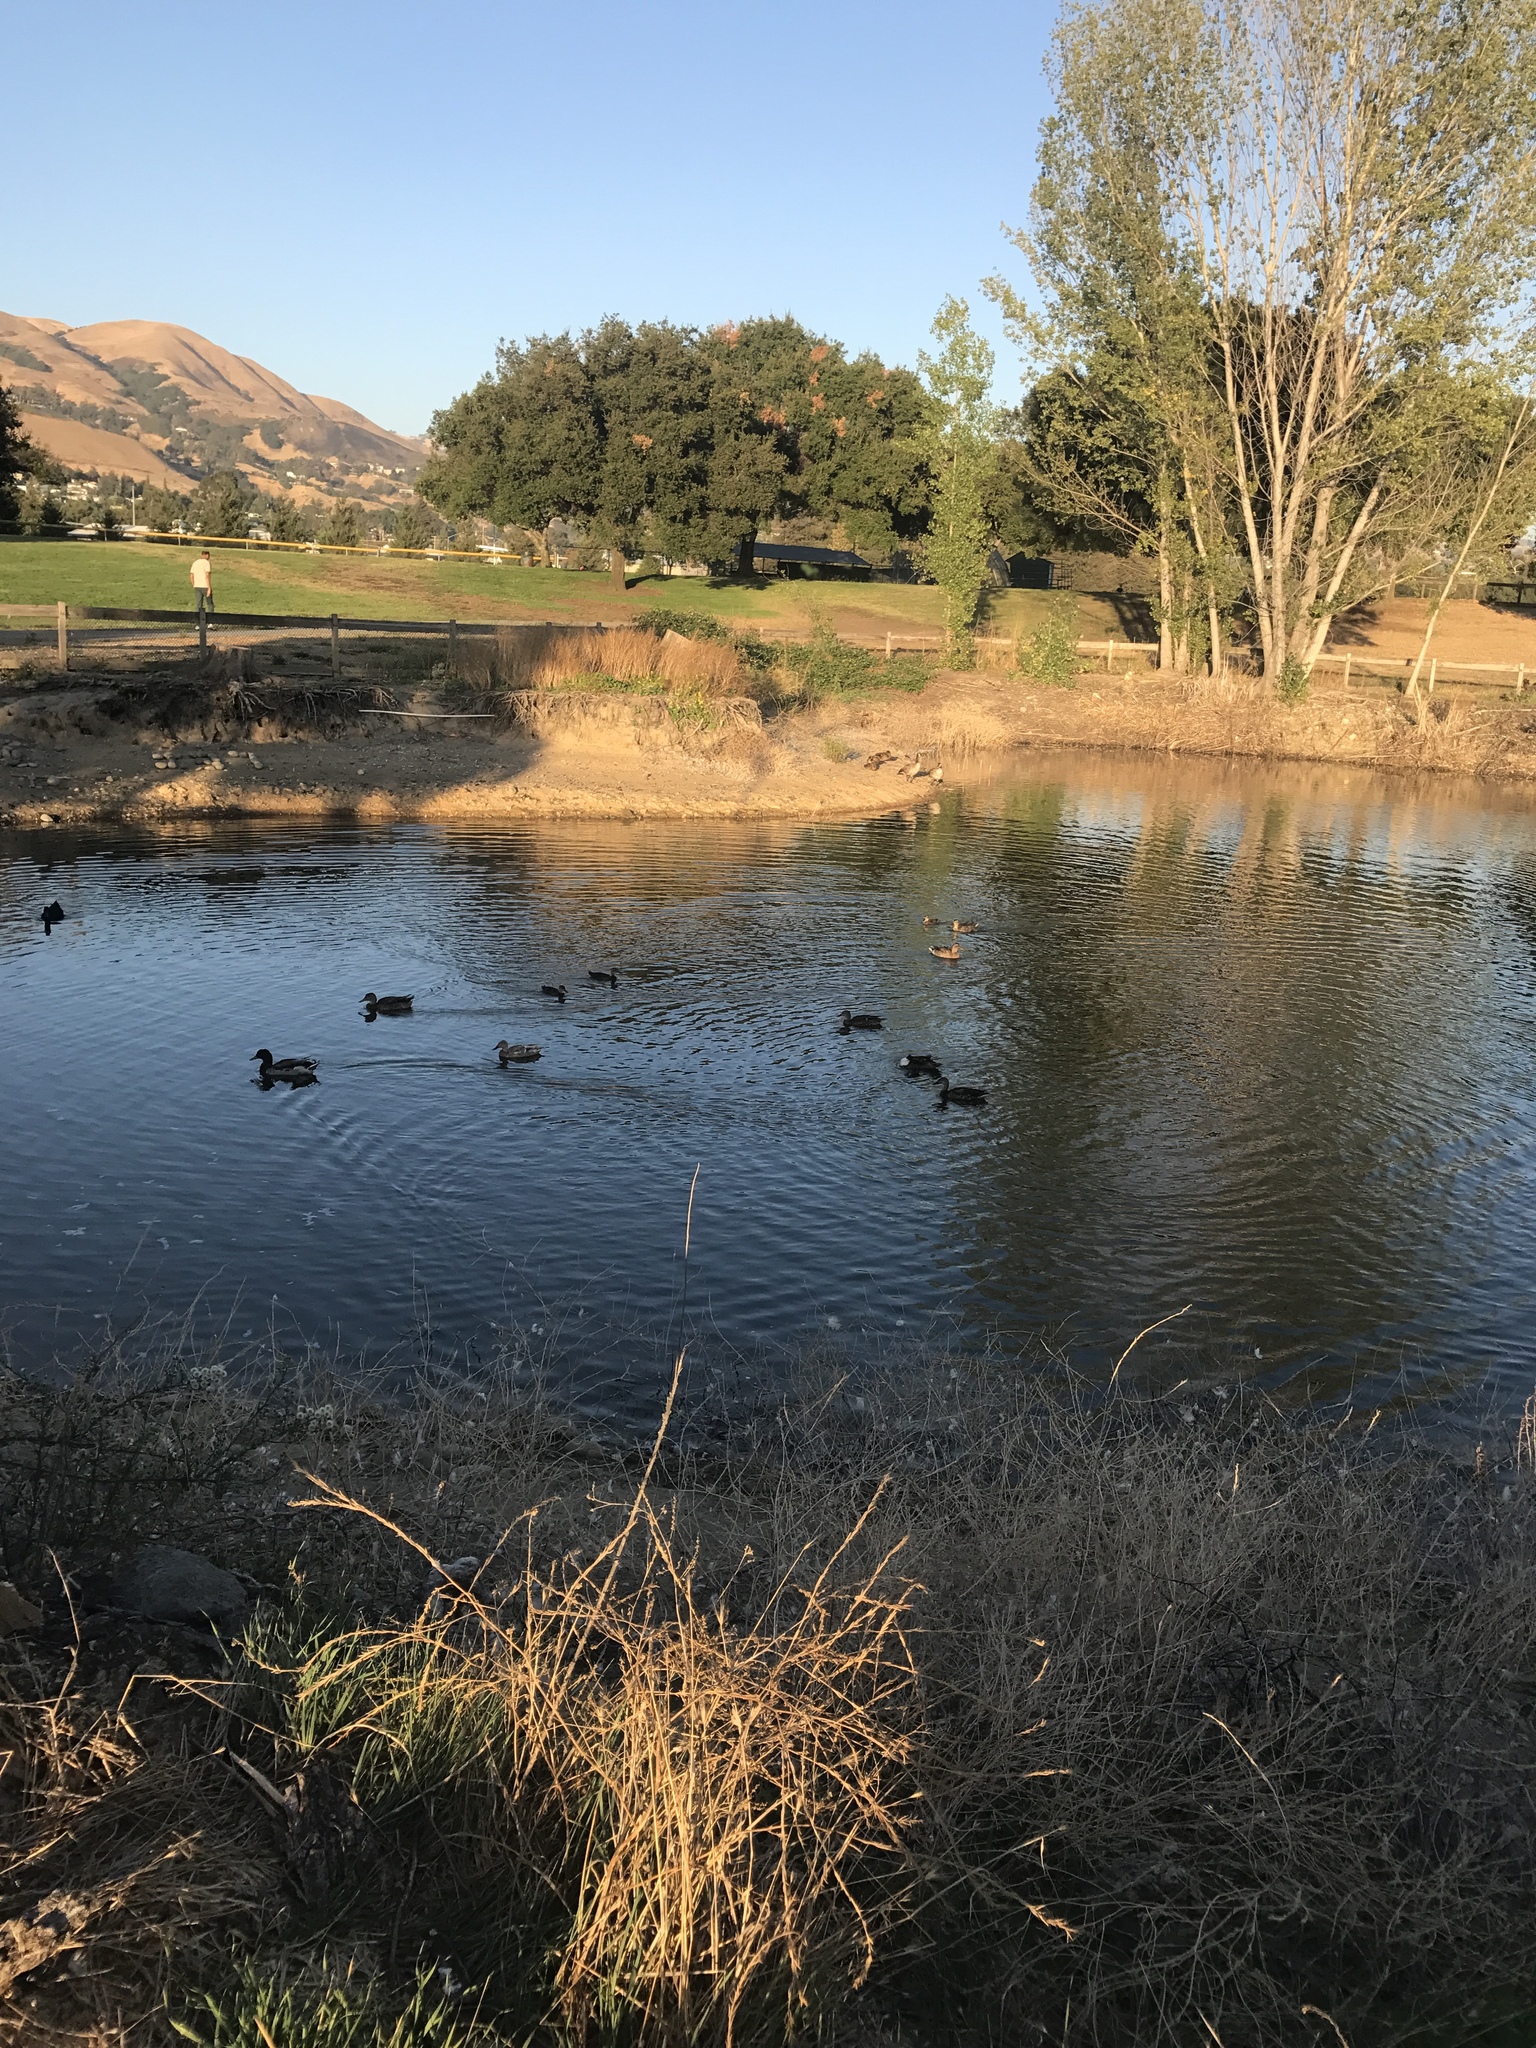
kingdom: Animalia
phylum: Chordata
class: Aves
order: Anseriformes
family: Anatidae
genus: Anas
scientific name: Anas platyrhynchos
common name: Mallard
